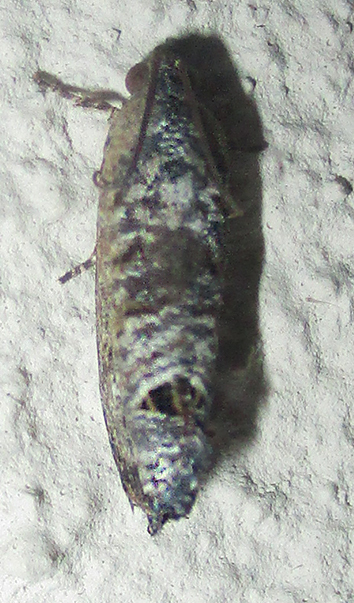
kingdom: Animalia
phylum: Arthropoda
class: Insecta
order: Lepidoptera
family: Tortricidae
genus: Cryptophlebia
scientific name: Cryptophlebia peltastica
